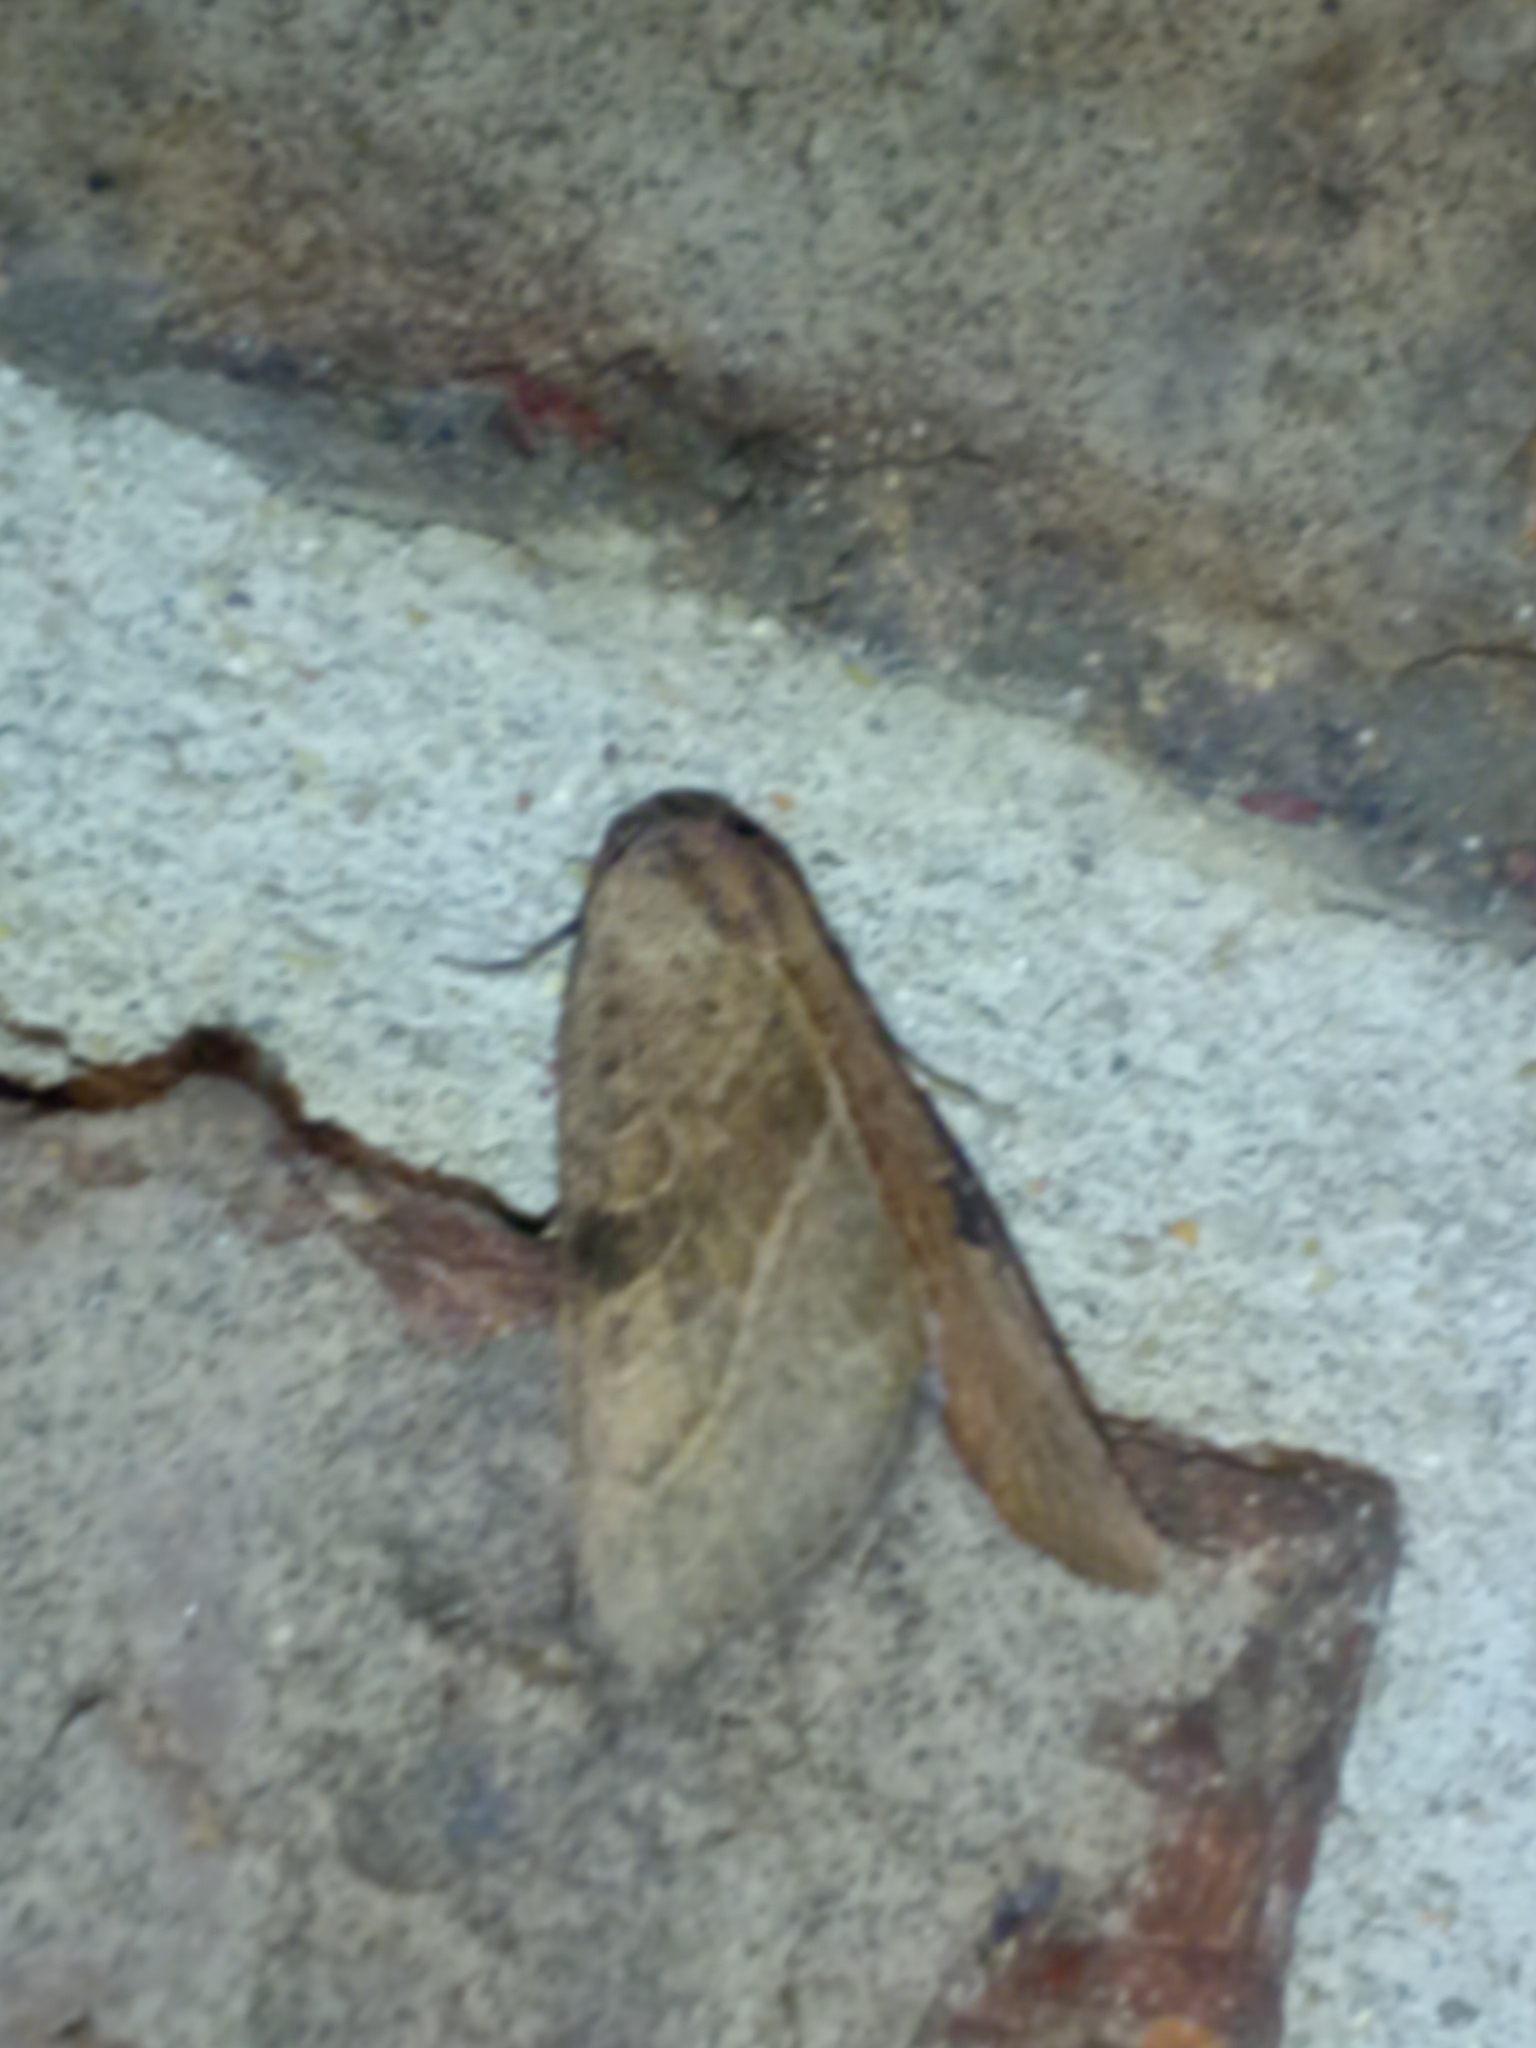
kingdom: Animalia
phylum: Arthropoda
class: Insecta
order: Lepidoptera
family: Noctuidae
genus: Galgula
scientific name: Galgula partita
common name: Wedgeling
